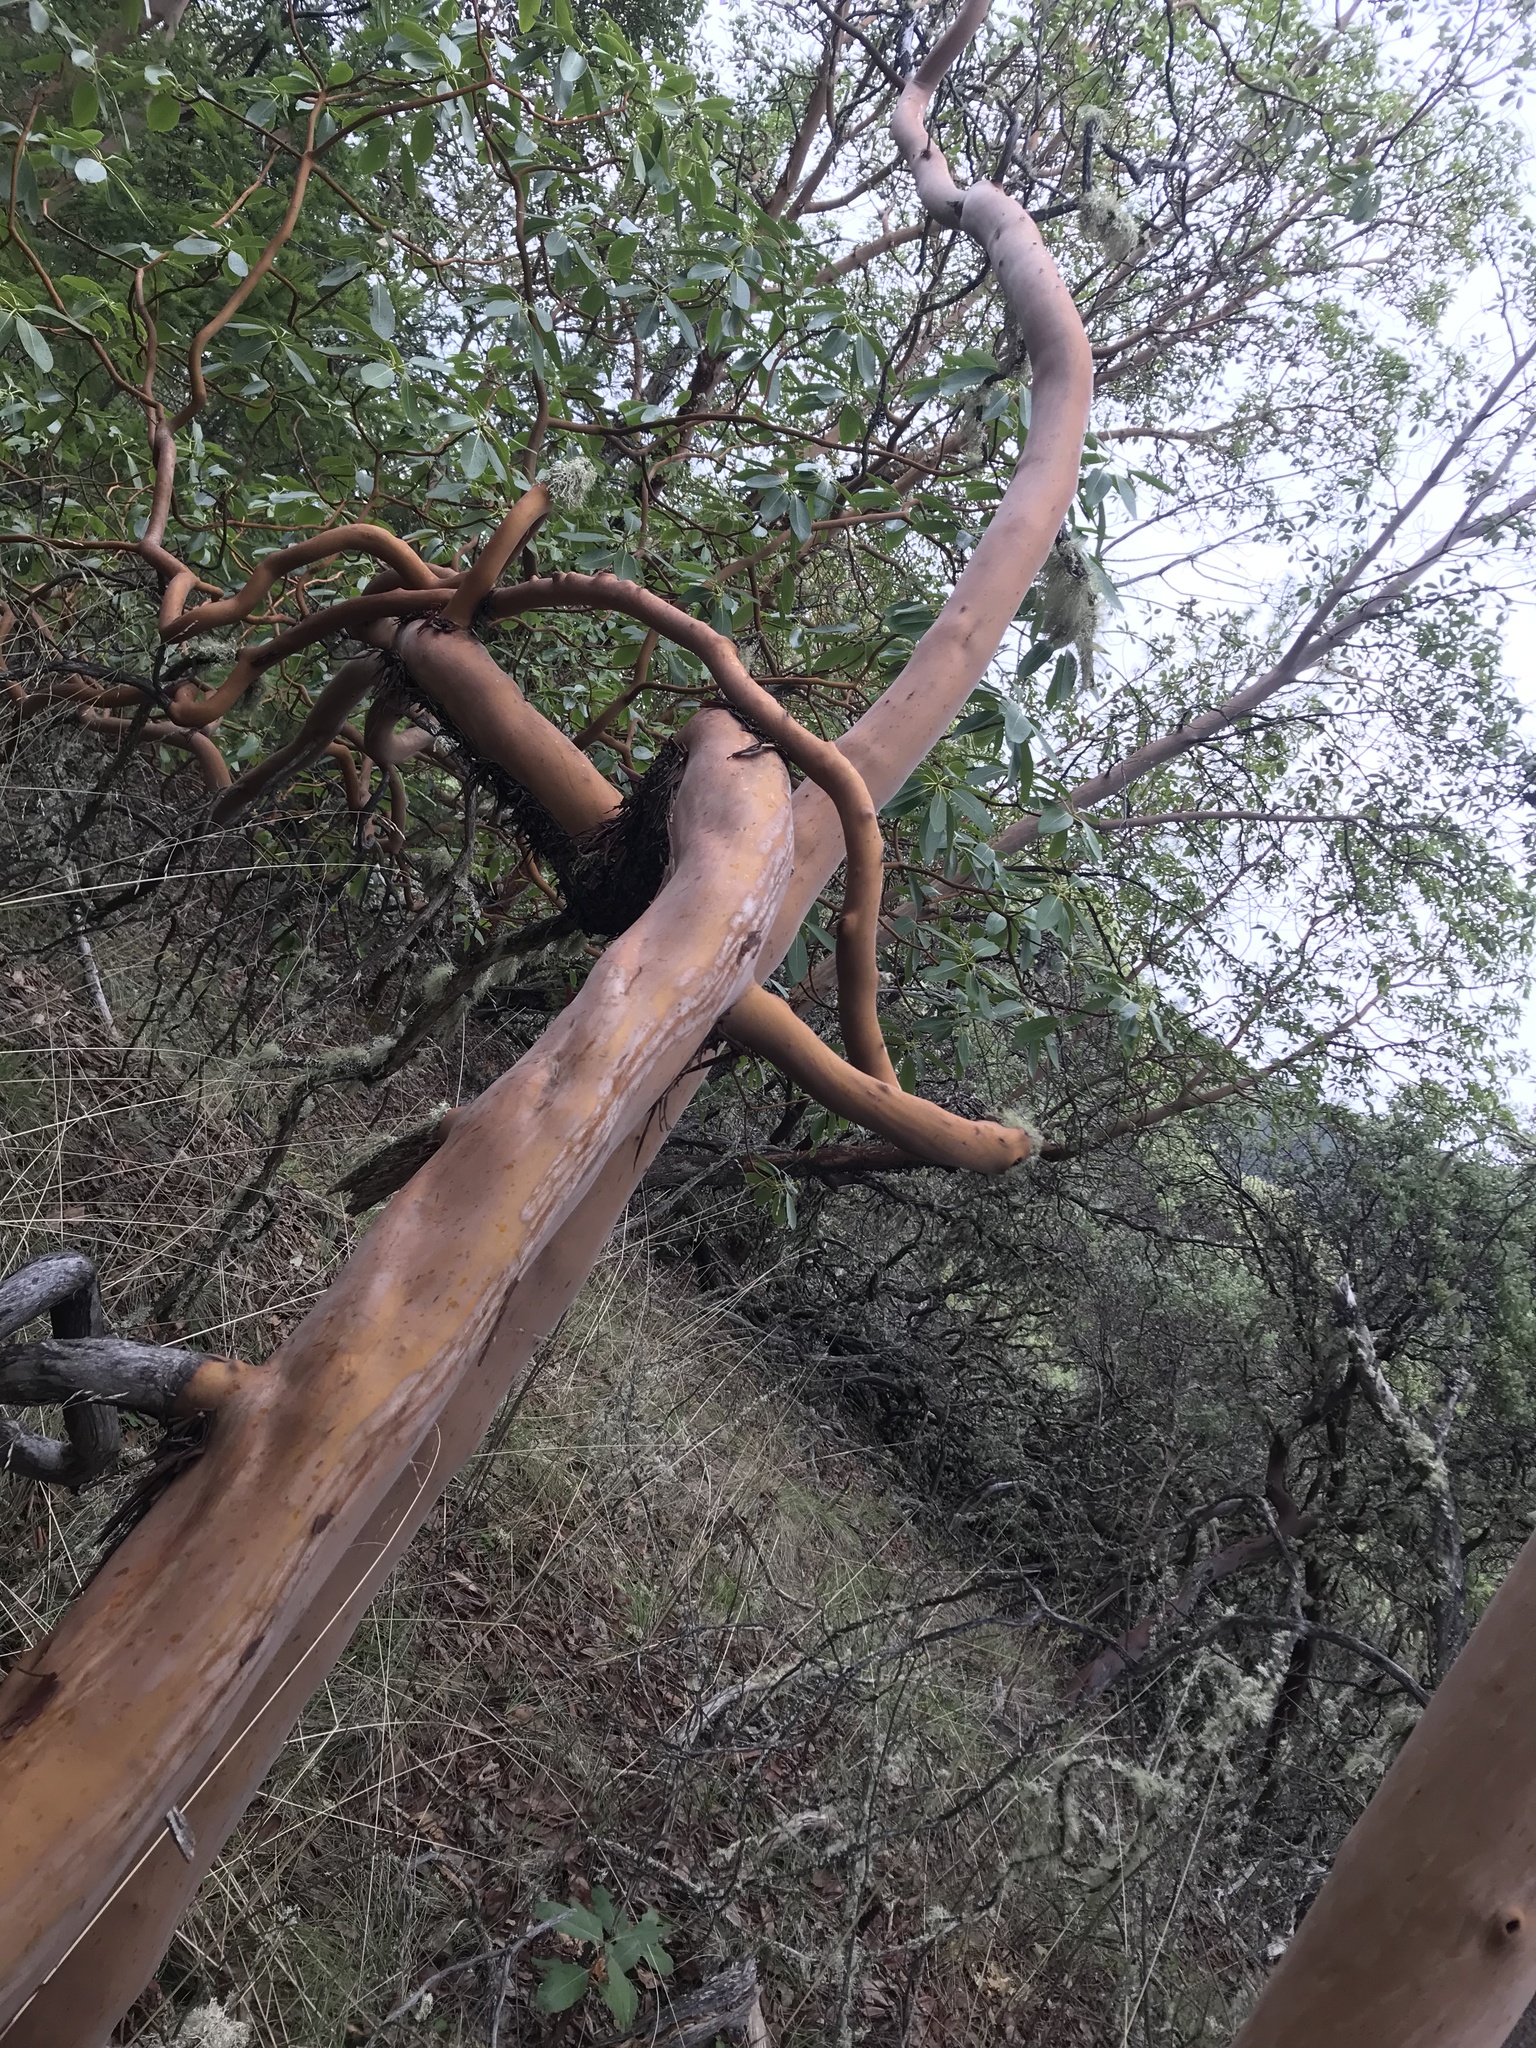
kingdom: Plantae
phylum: Tracheophyta
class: Magnoliopsida
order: Ericales
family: Ericaceae
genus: Arbutus
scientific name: Arbutus menziesii
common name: Pacific madrone
